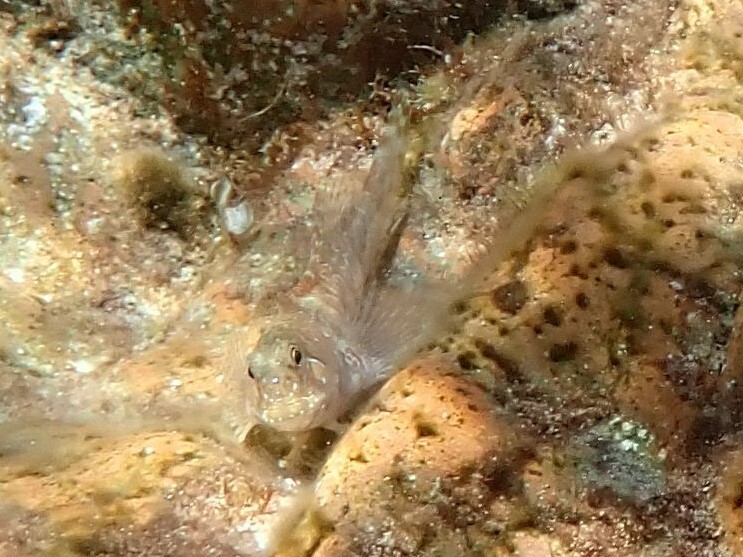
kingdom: Animalia
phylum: Chordata
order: Perciformes
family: Blenniidae
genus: Aidablennius
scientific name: Aidablennius sphynx
